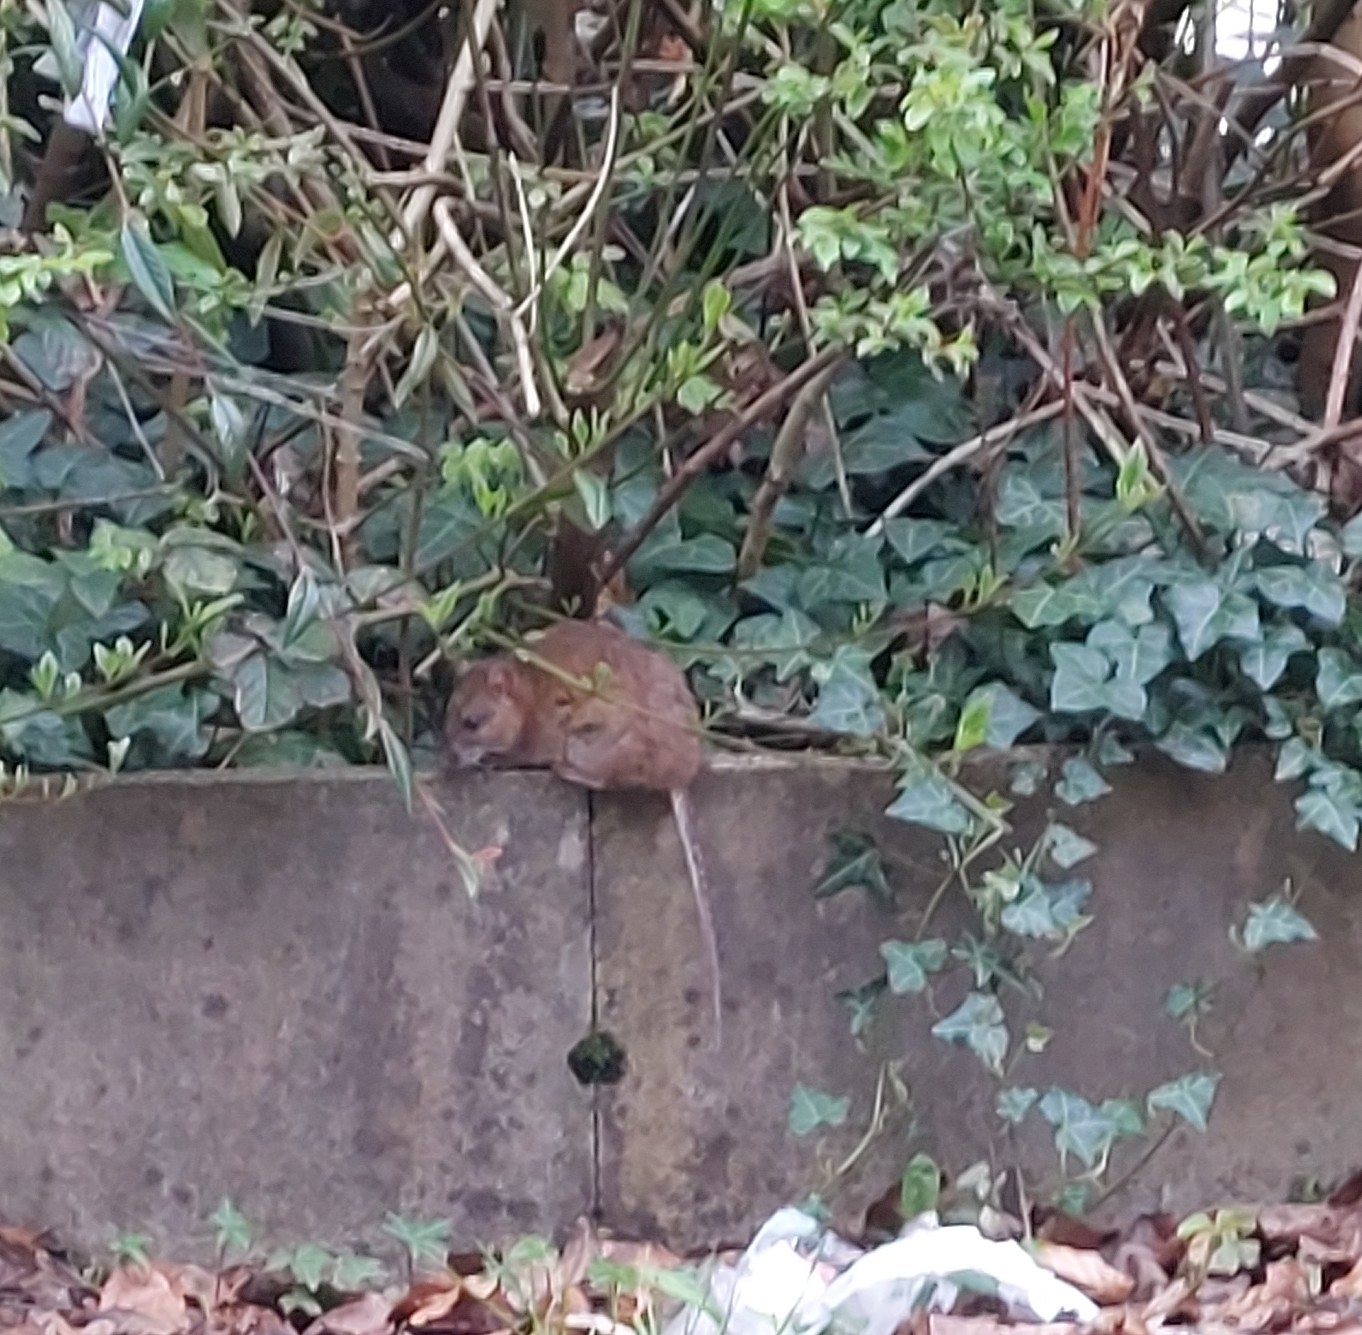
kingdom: Animalia
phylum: Chordata
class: Mammalia
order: Rodentia
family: Muridae
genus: Rattus
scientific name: Rattus norvegicus
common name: Brown rat
